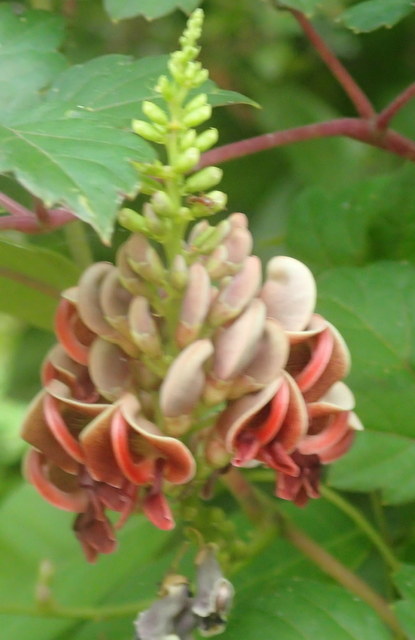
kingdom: Plantae
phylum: Tracheophyta
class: Magnoliopsida
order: Fabales
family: Fabaceae
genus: Apios
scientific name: Apios americana
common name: American potato-bean
